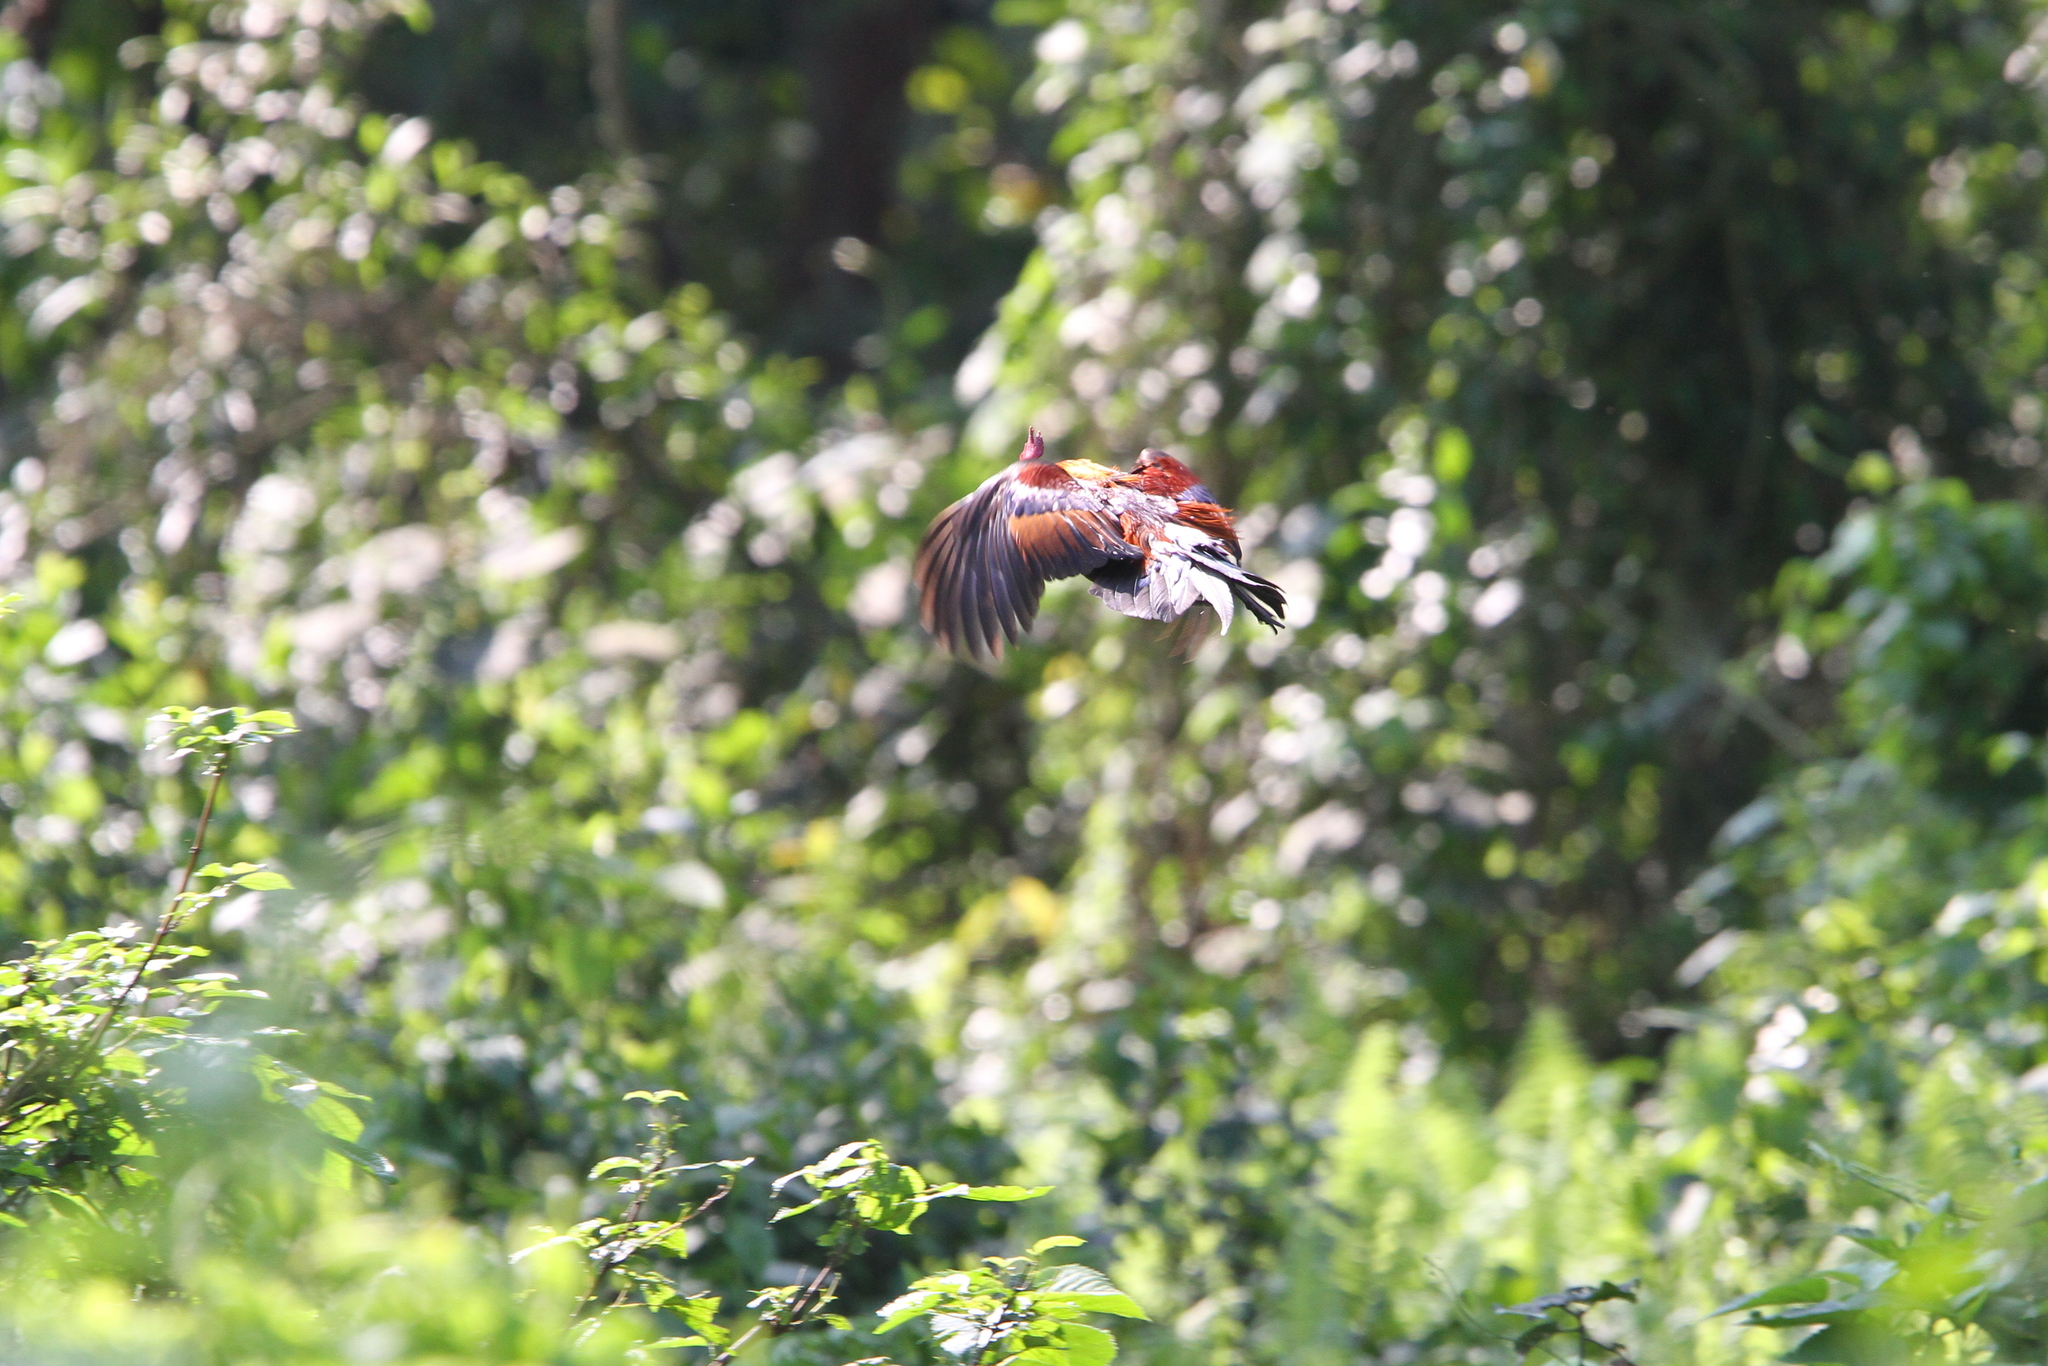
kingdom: Animalia
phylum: Chordata
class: Aves
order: Galliformes
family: Phasianidae
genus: Gallus
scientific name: Gallus gallus
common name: Red junglefowl
